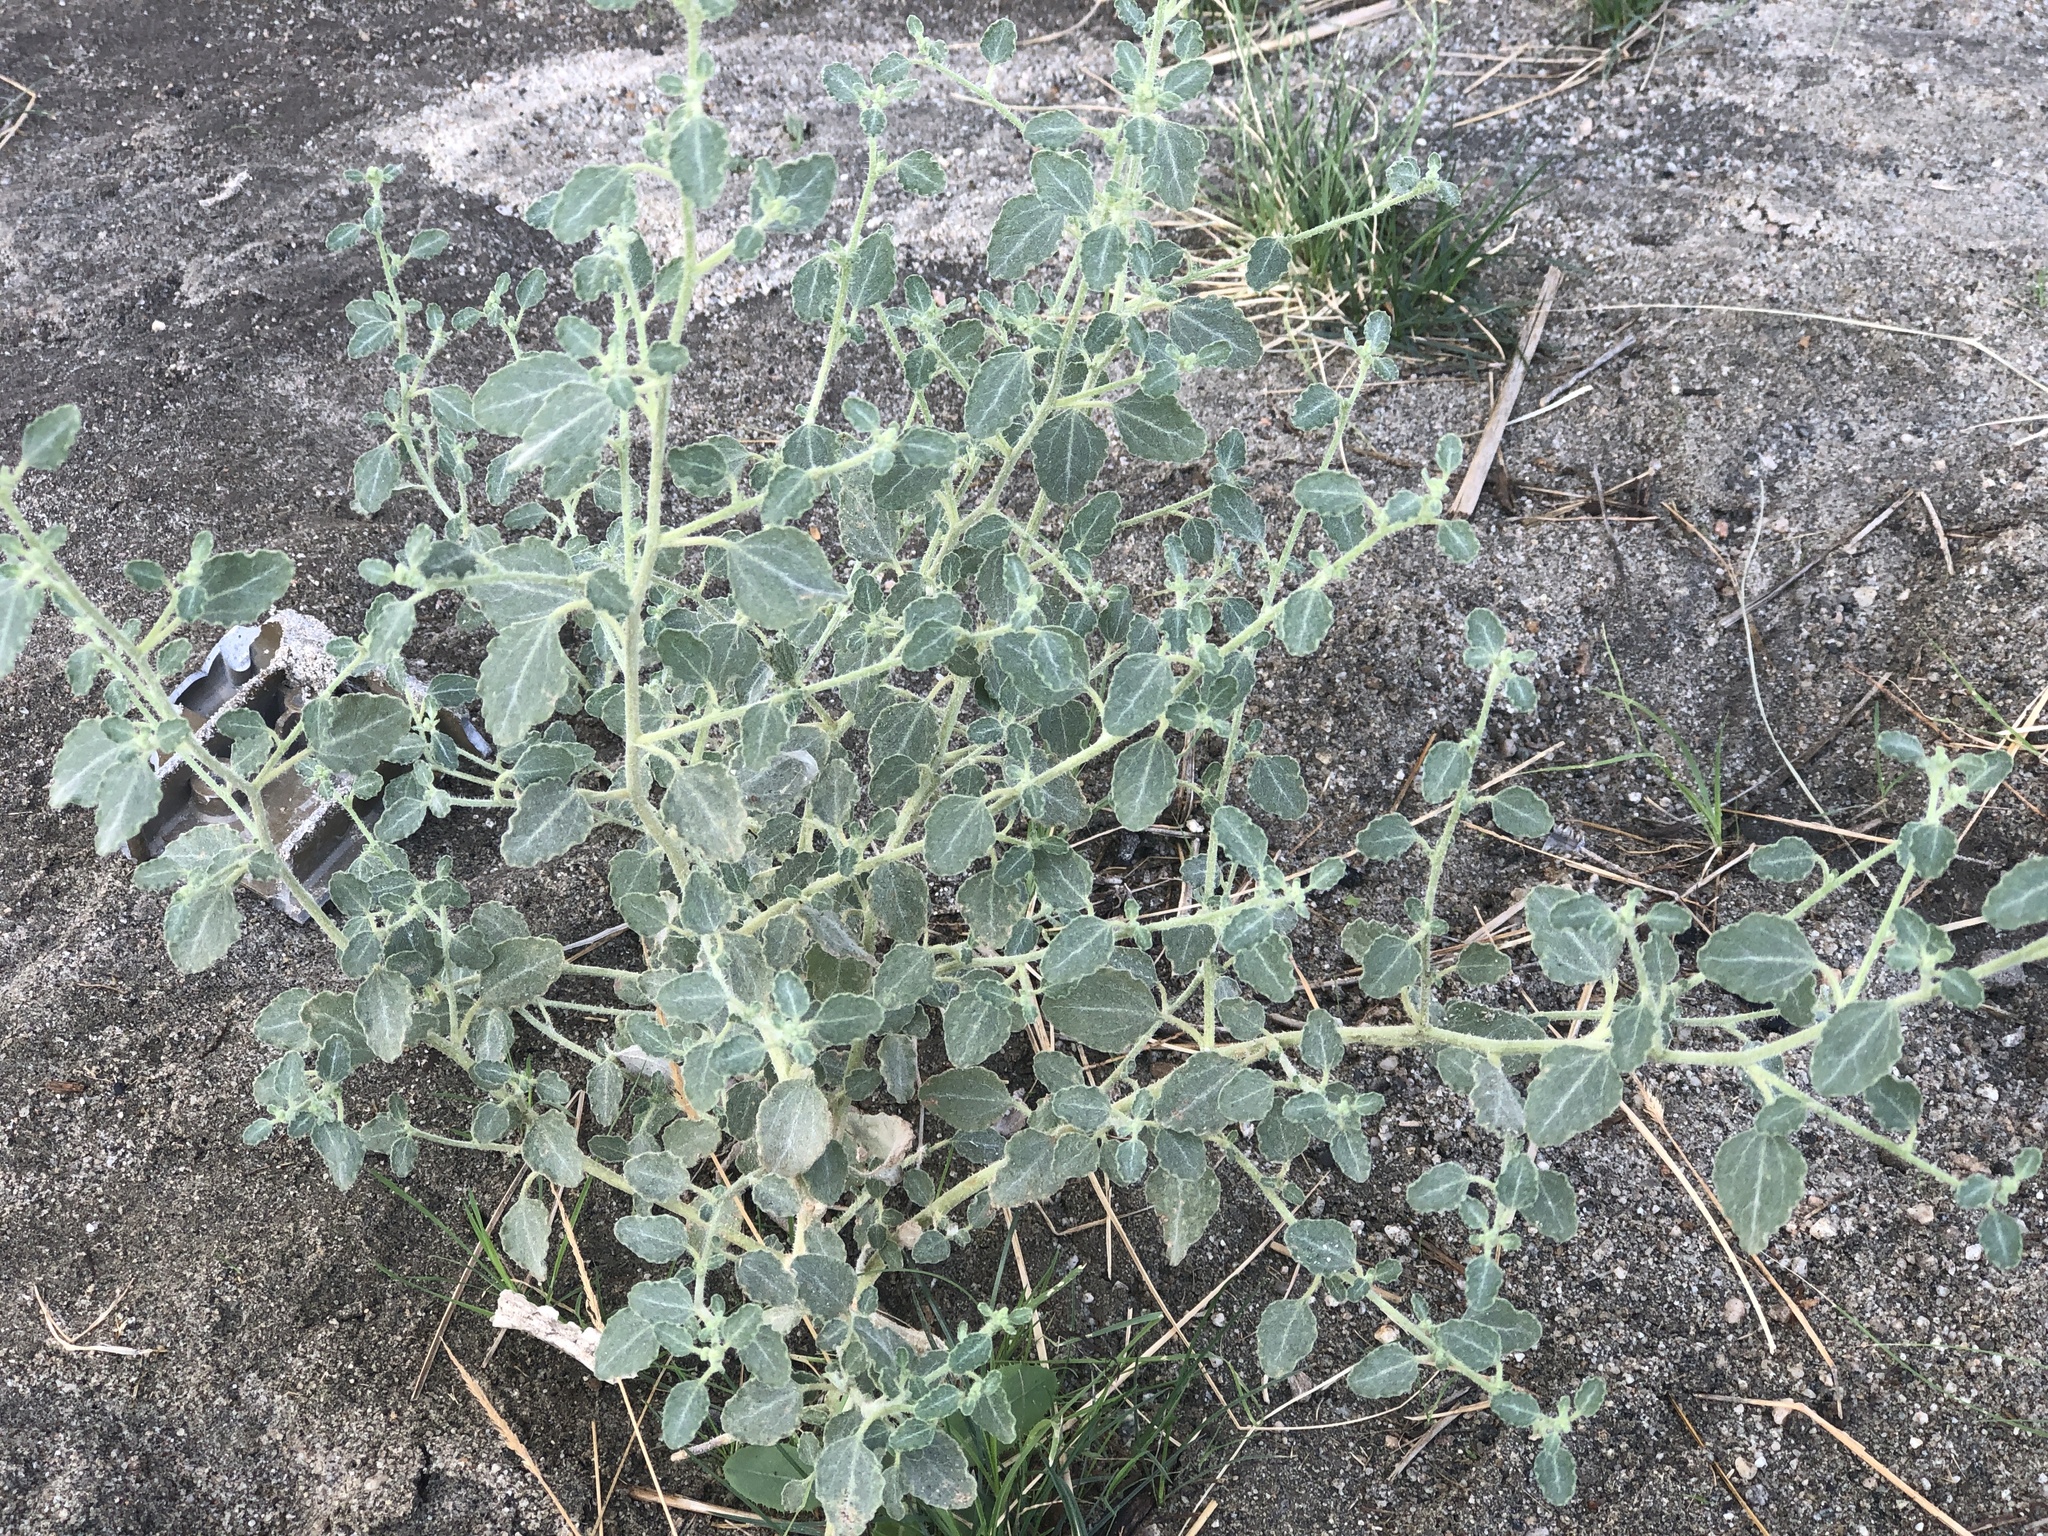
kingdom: Plantae
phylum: Tracheophyta
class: Magnoliopsida
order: Asterales
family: Asteraceae
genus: Dicoria
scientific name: Dicoria canescens
